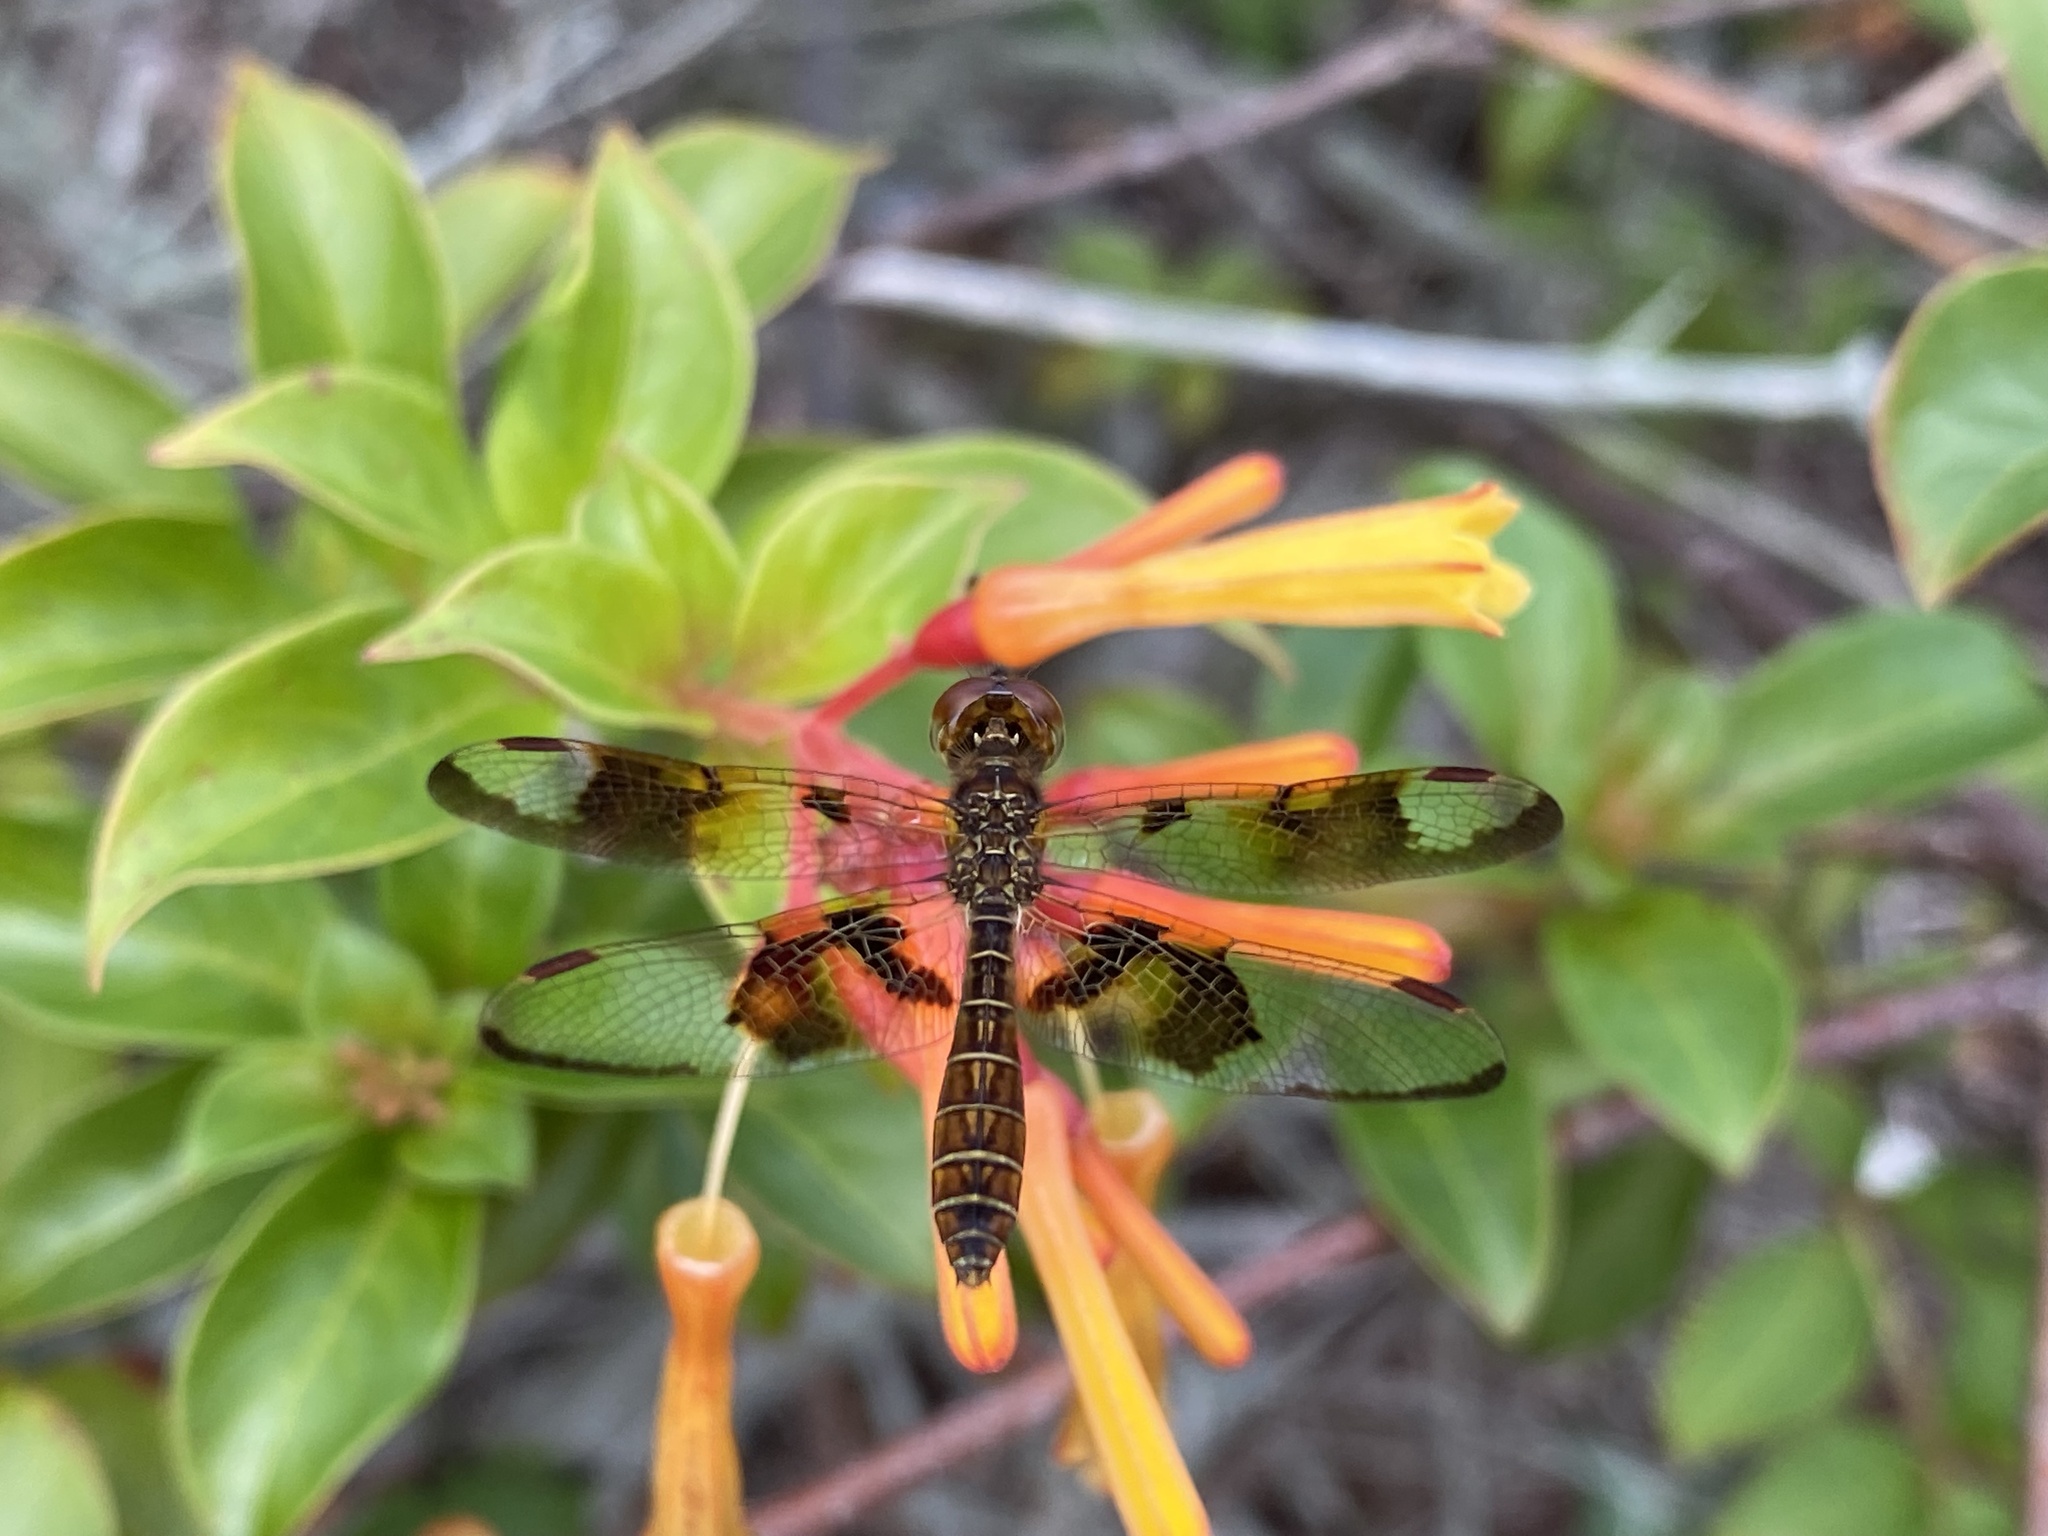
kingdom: Animalia
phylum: Arthropoda
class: Insecta
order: Odonata
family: Libellulidae
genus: Perithemis
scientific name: Perithemis tenera
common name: Eastern amberwing
